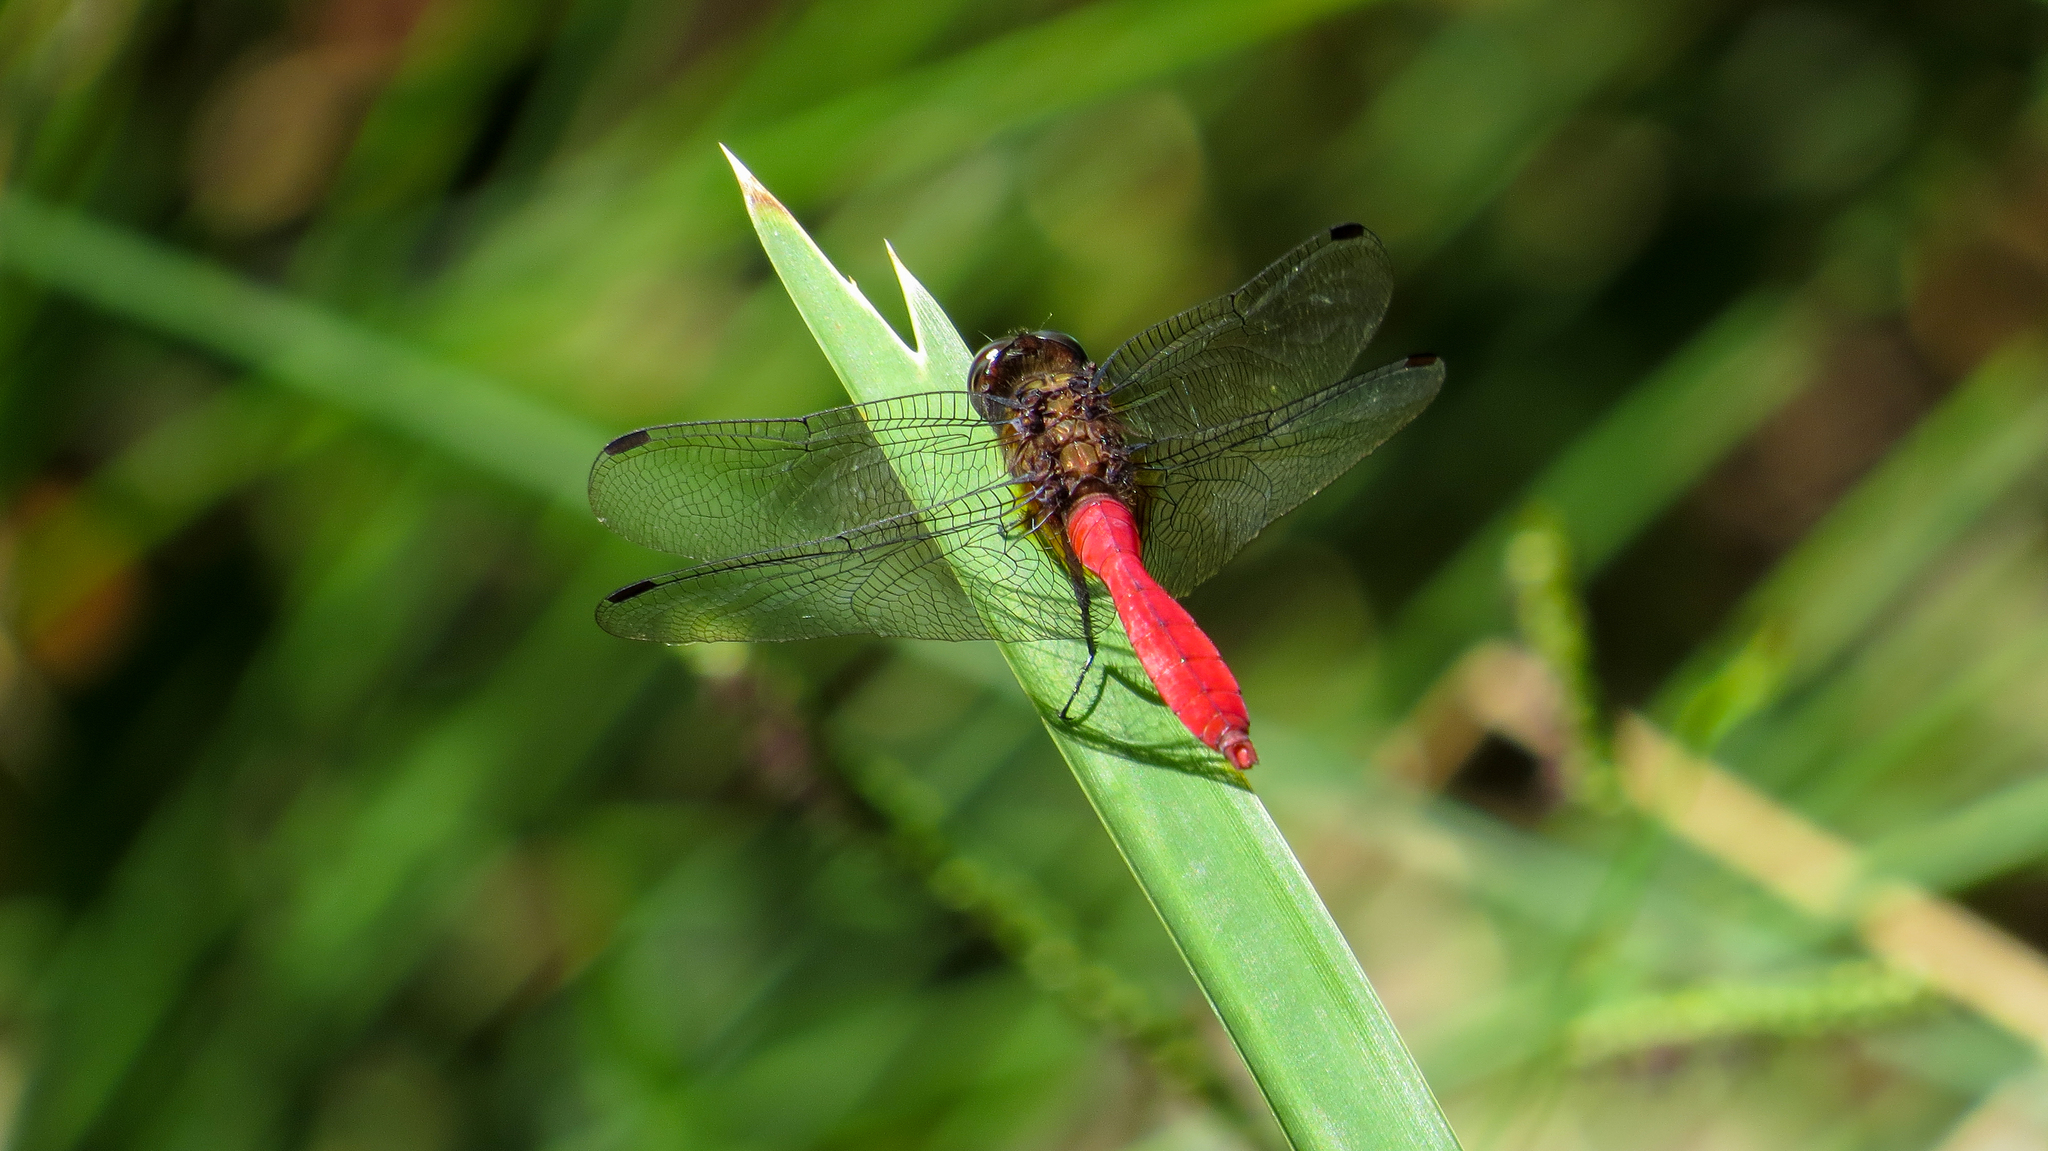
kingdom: Animalia
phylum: Arthropoda
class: Insecta
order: Odonata
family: Libellulidae
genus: Orthetrum
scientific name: Orthetrum villosovittatum
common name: Firery skimmer
